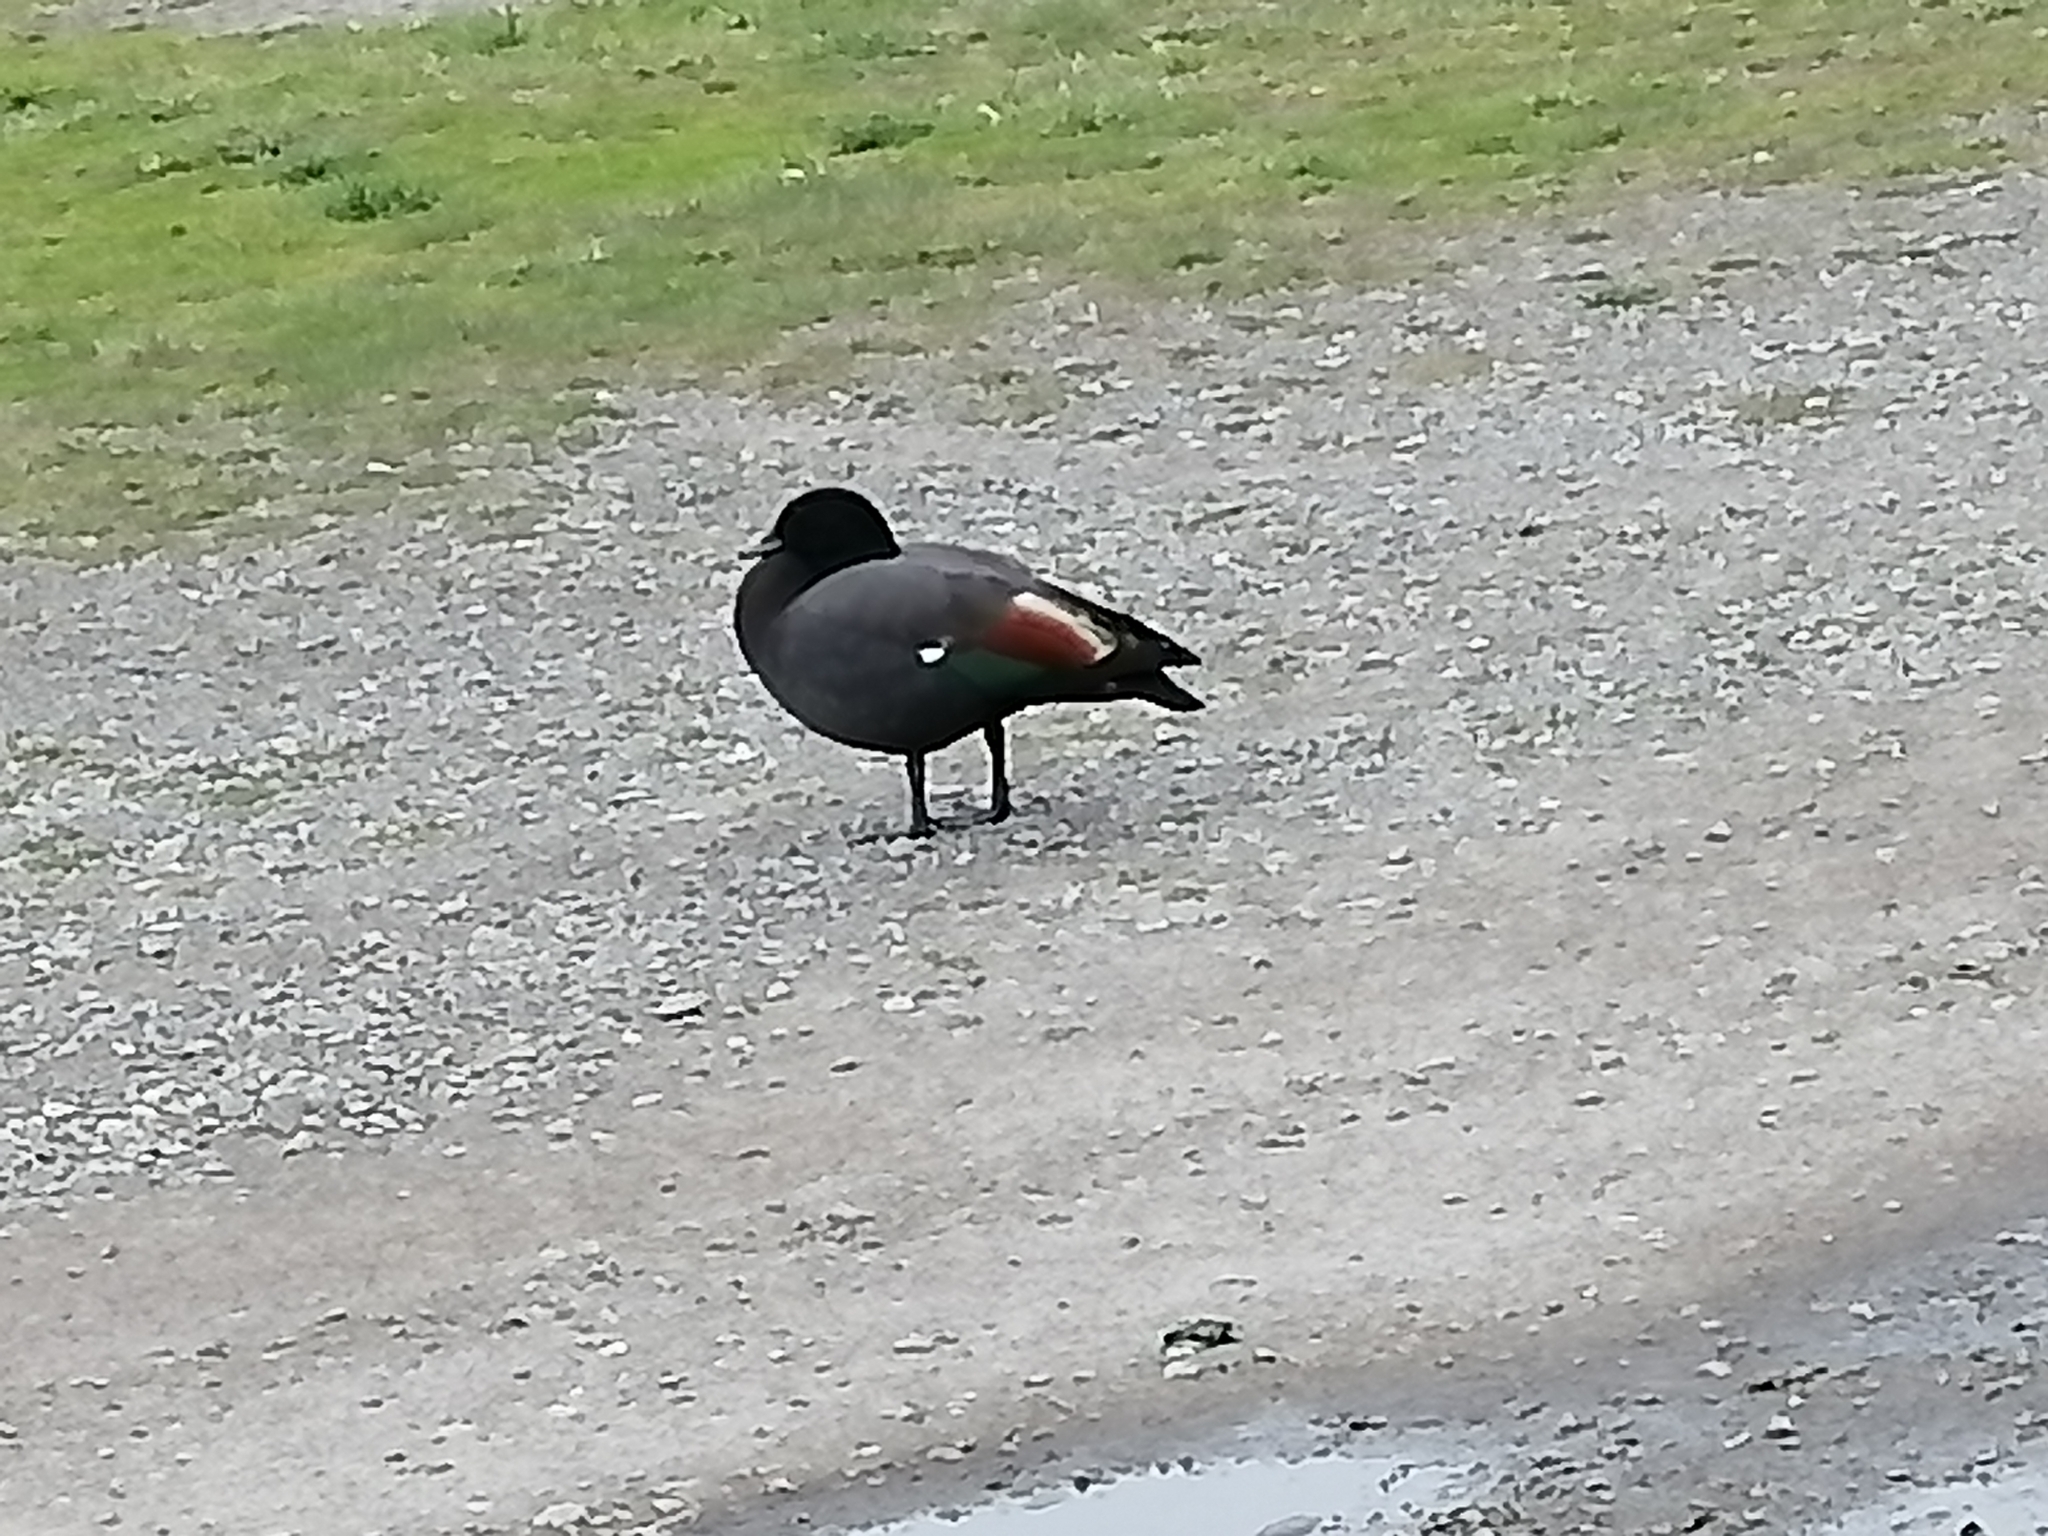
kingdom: Animalia
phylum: Chordata
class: Aves
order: Anseriformes
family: Anatidae
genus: Tadorna
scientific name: Tadorna variegata
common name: Paradise shelduck
